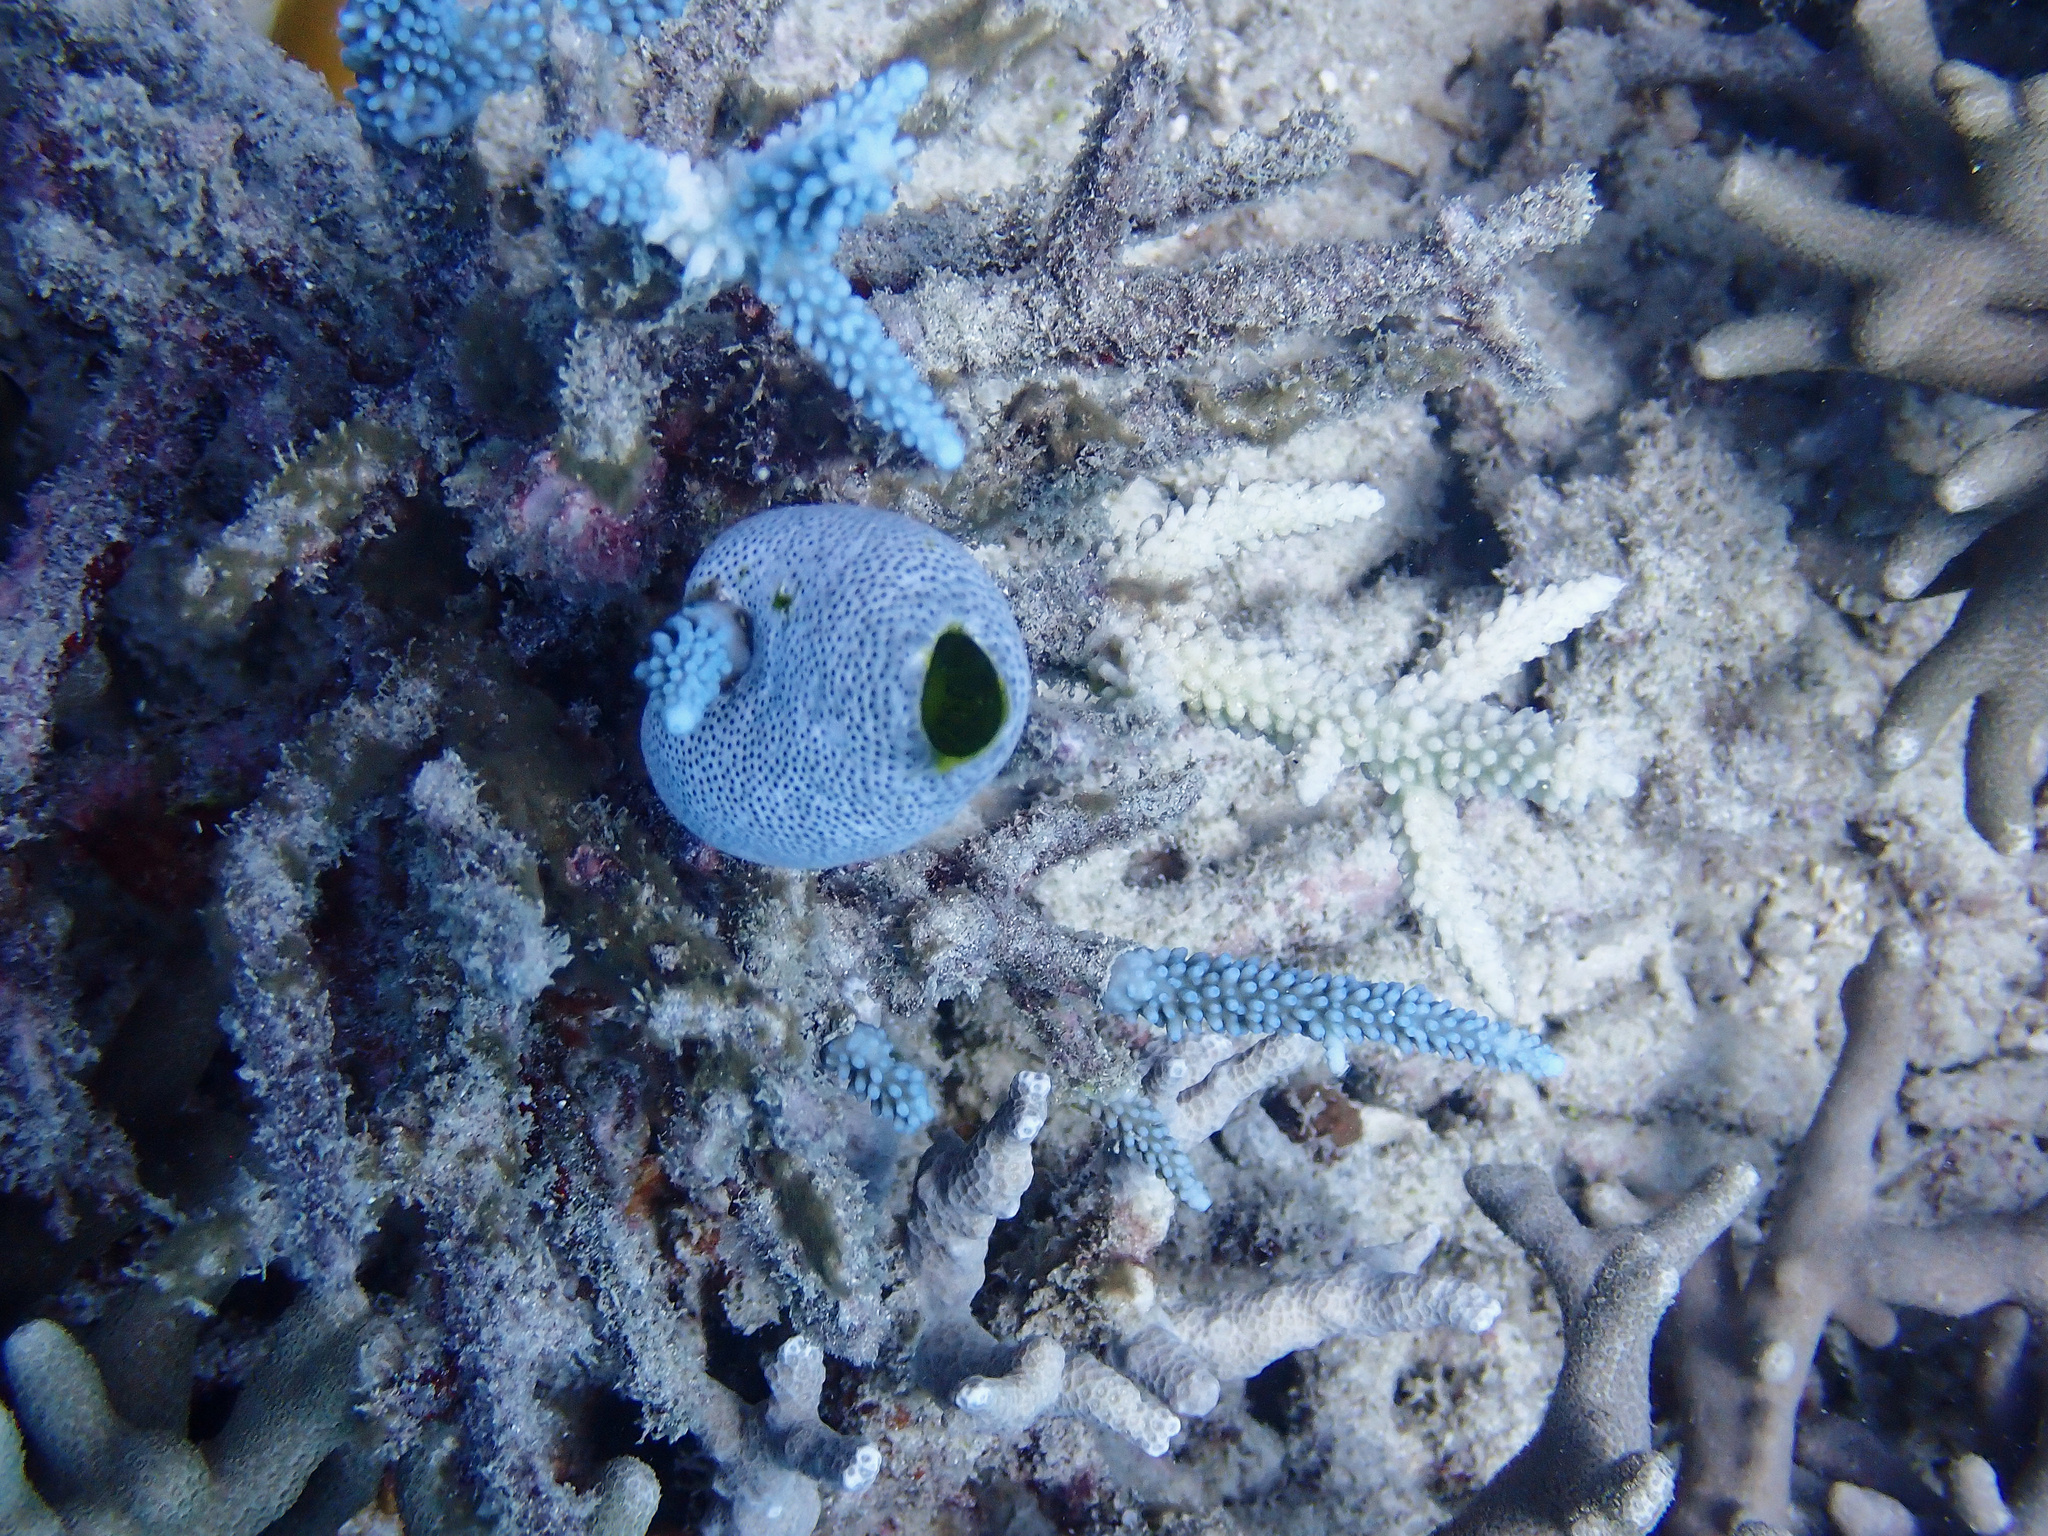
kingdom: Animalia
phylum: Chordata
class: Ascidiacea
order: Aplousobranchia
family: Didemnidae
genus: Didemnum
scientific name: Didemnum molle
